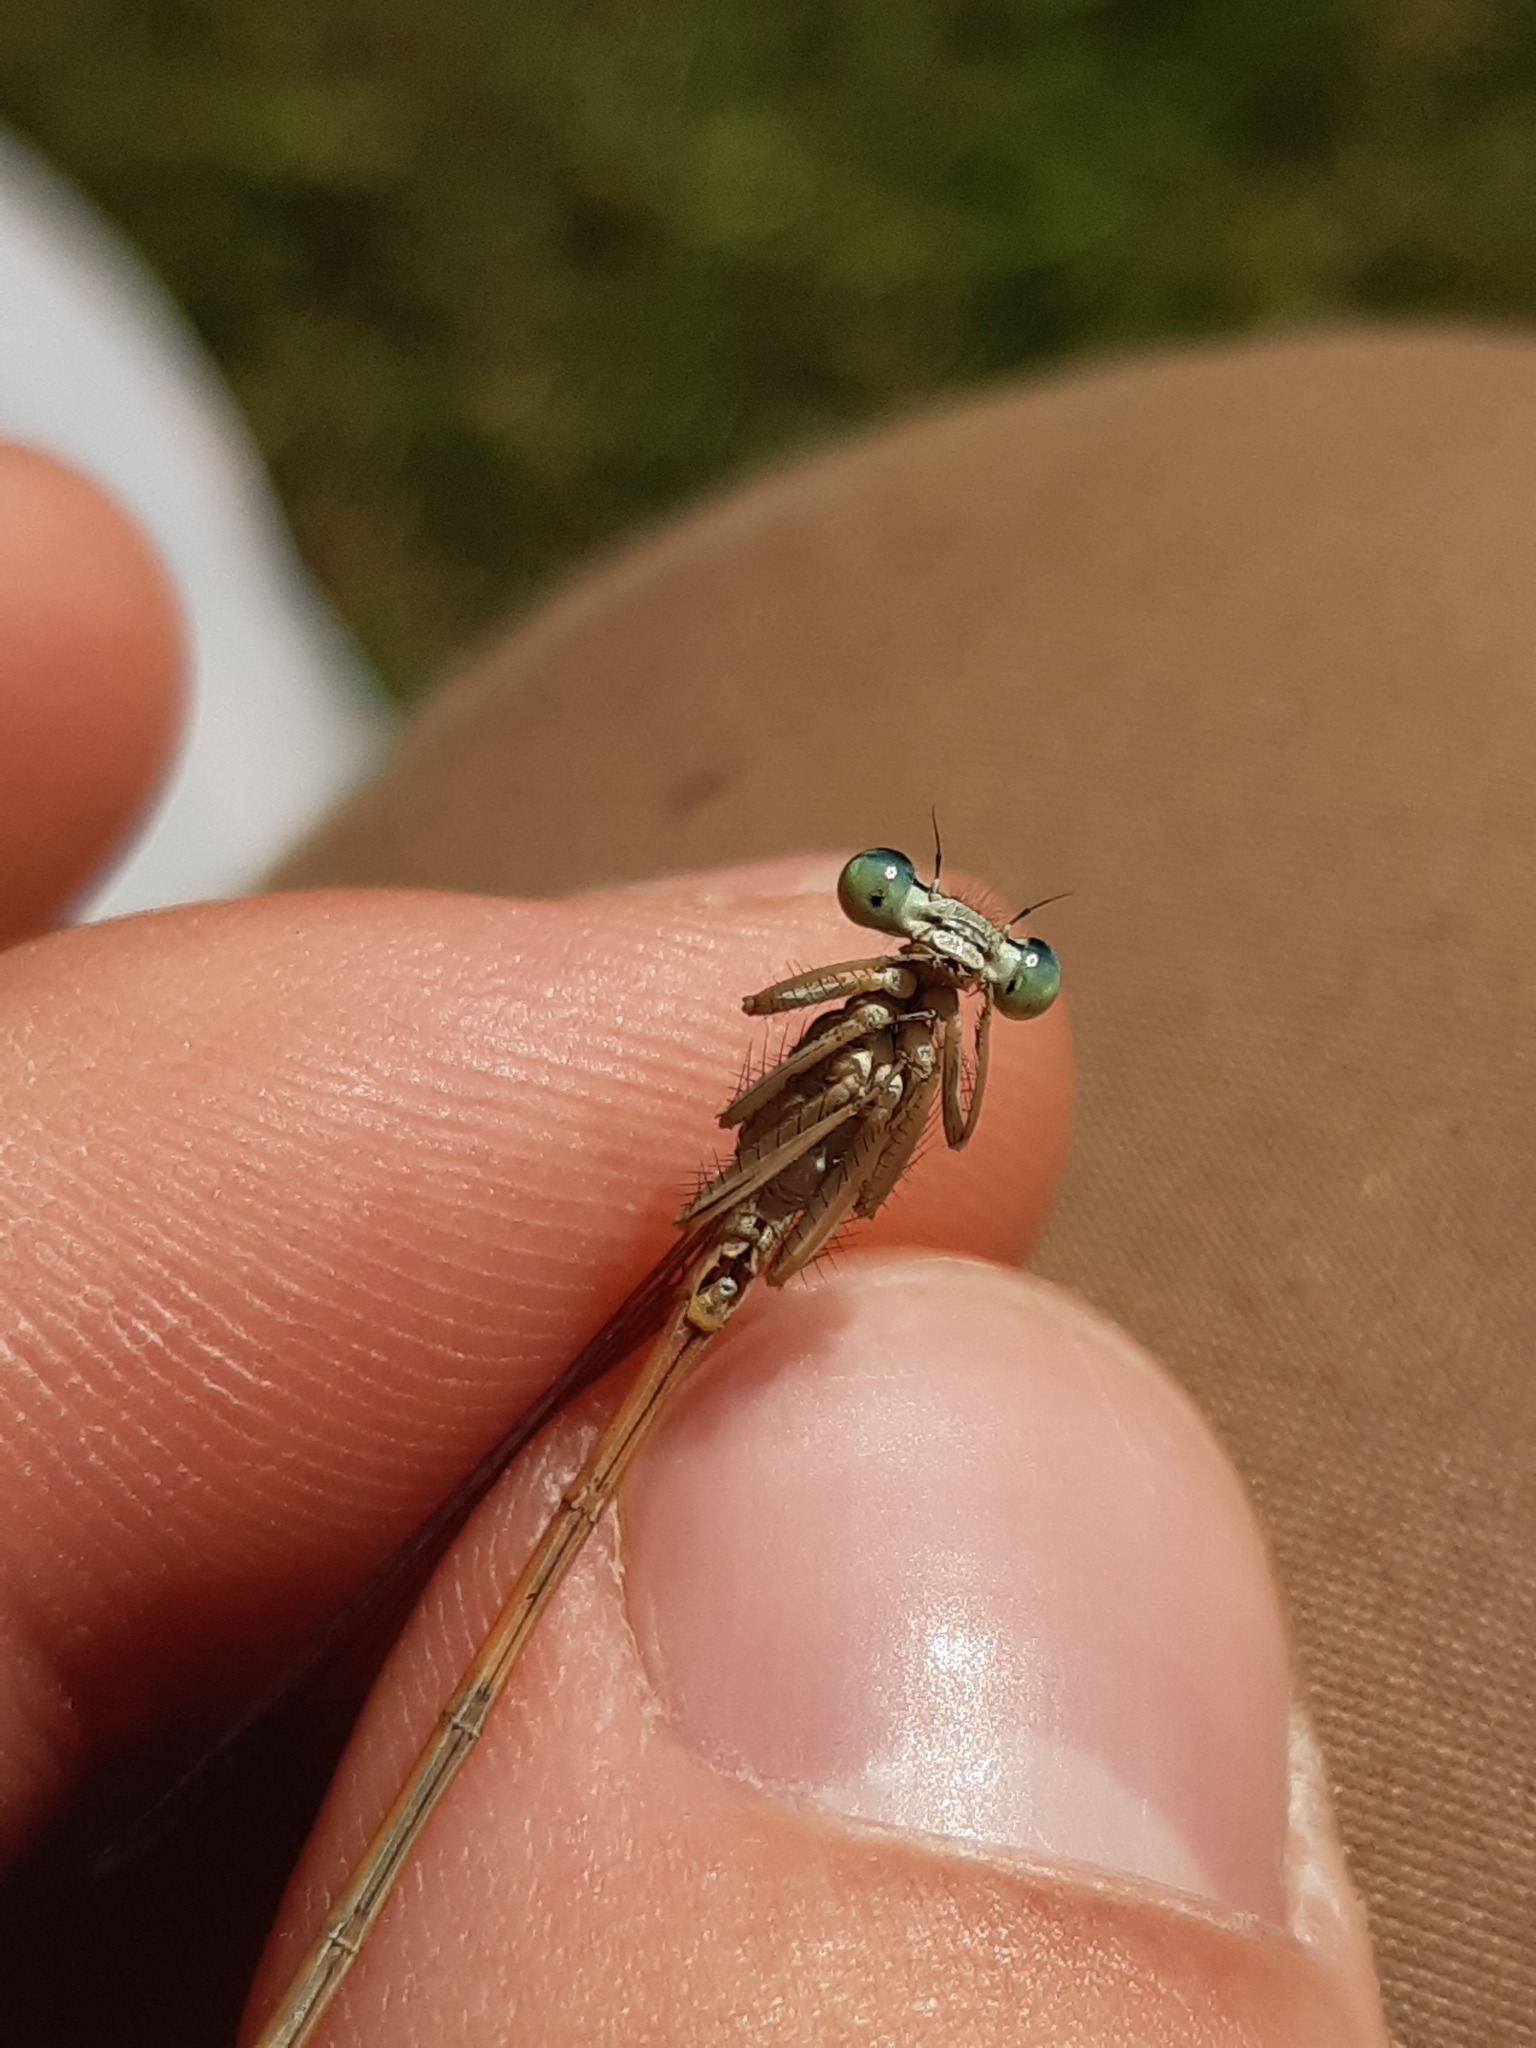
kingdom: Animalia
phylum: Arthropoda
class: Insecta
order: Odonata
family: Platycnemididae
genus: Platycnemis
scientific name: Platycnemis acutipennis
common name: Orange featherleg
